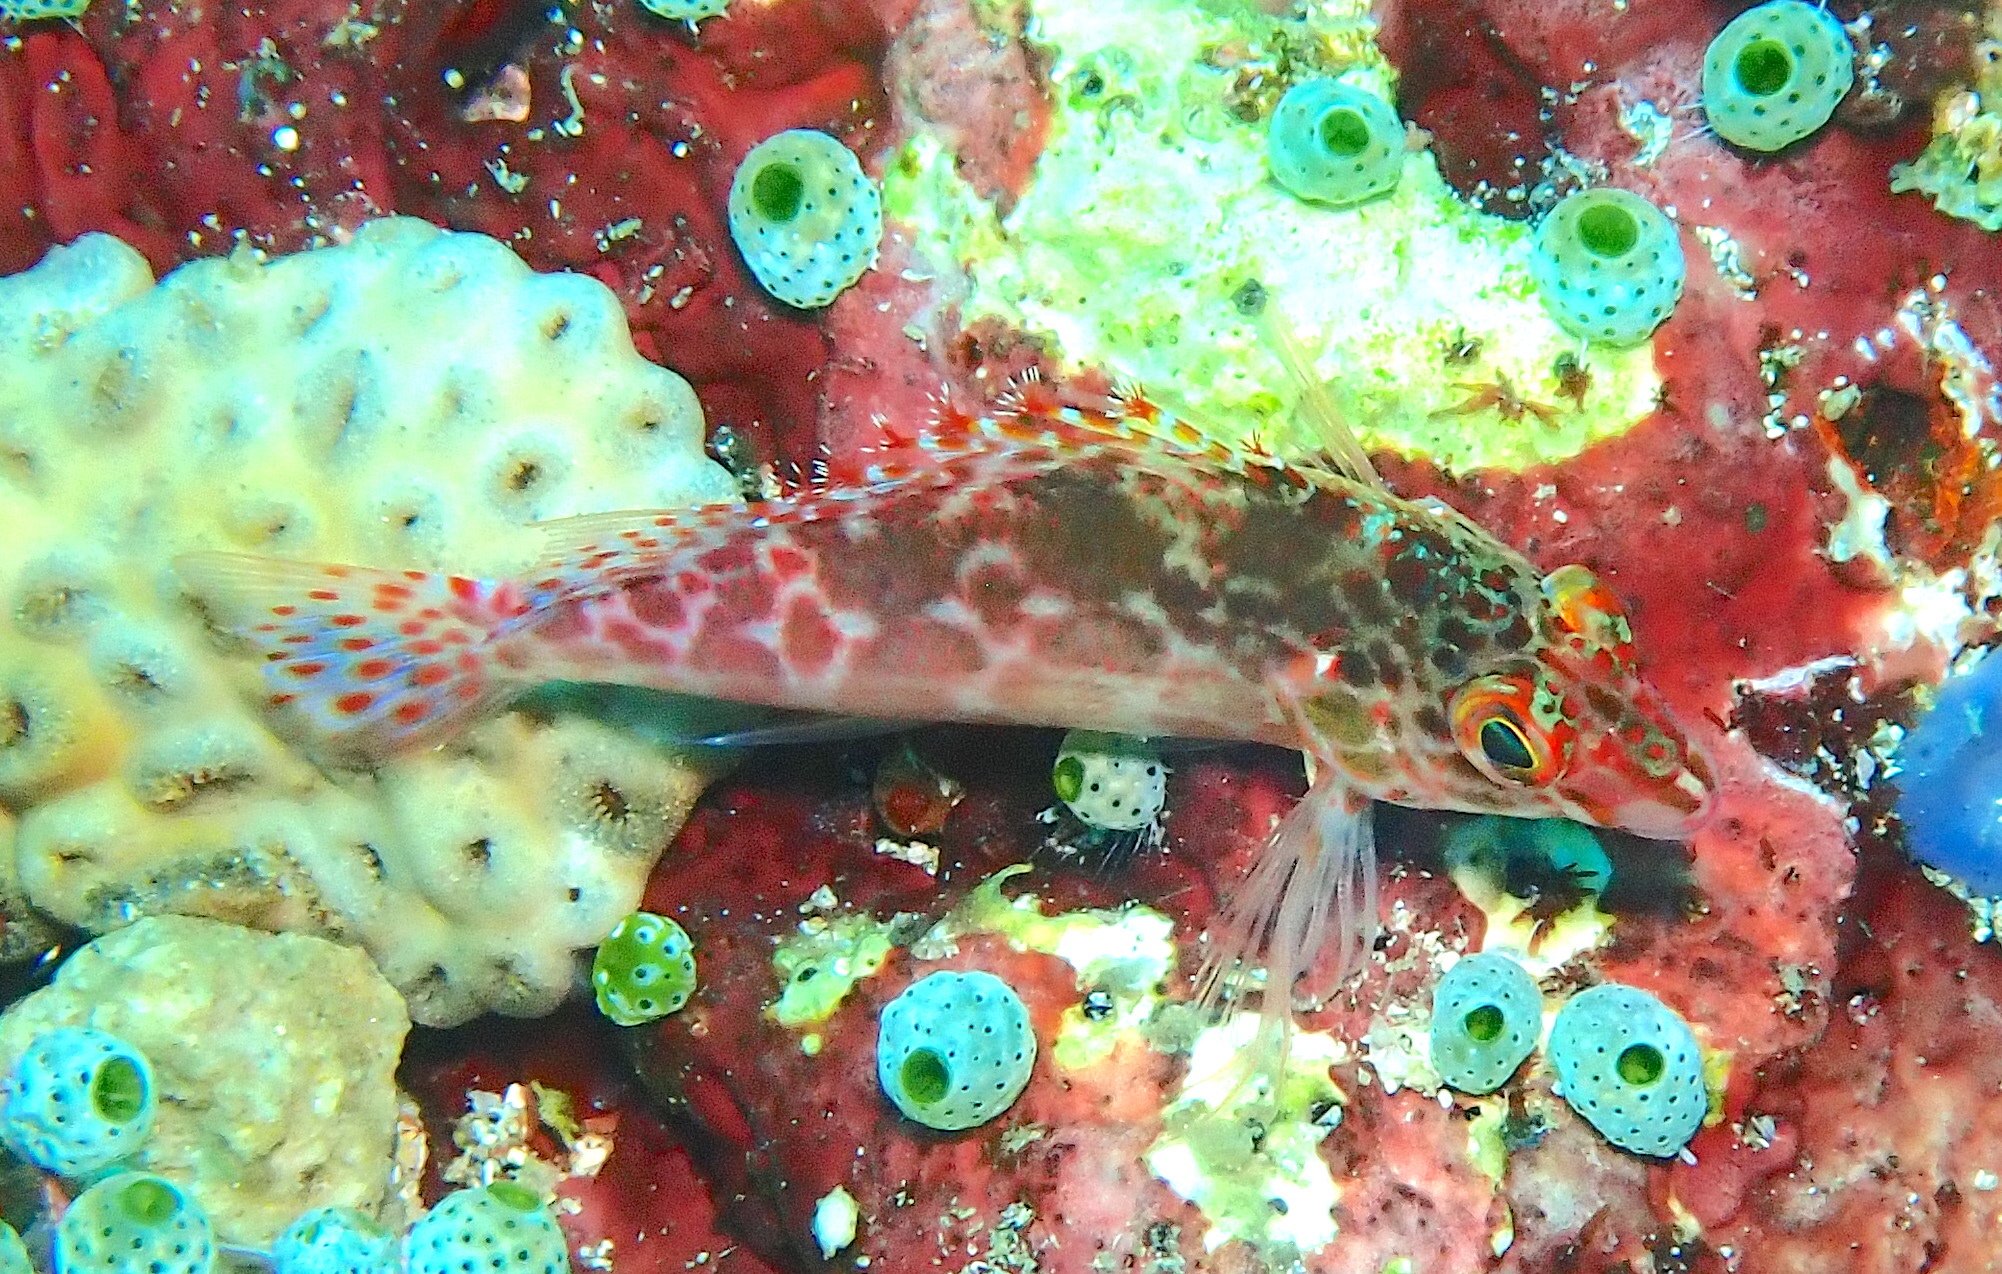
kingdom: Animalia
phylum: Chordata
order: Perciformes
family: Cirrhitidae
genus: Cirrhitichthys
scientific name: Cirrhitichthys oxycephalus
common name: Spotted hawkfish
